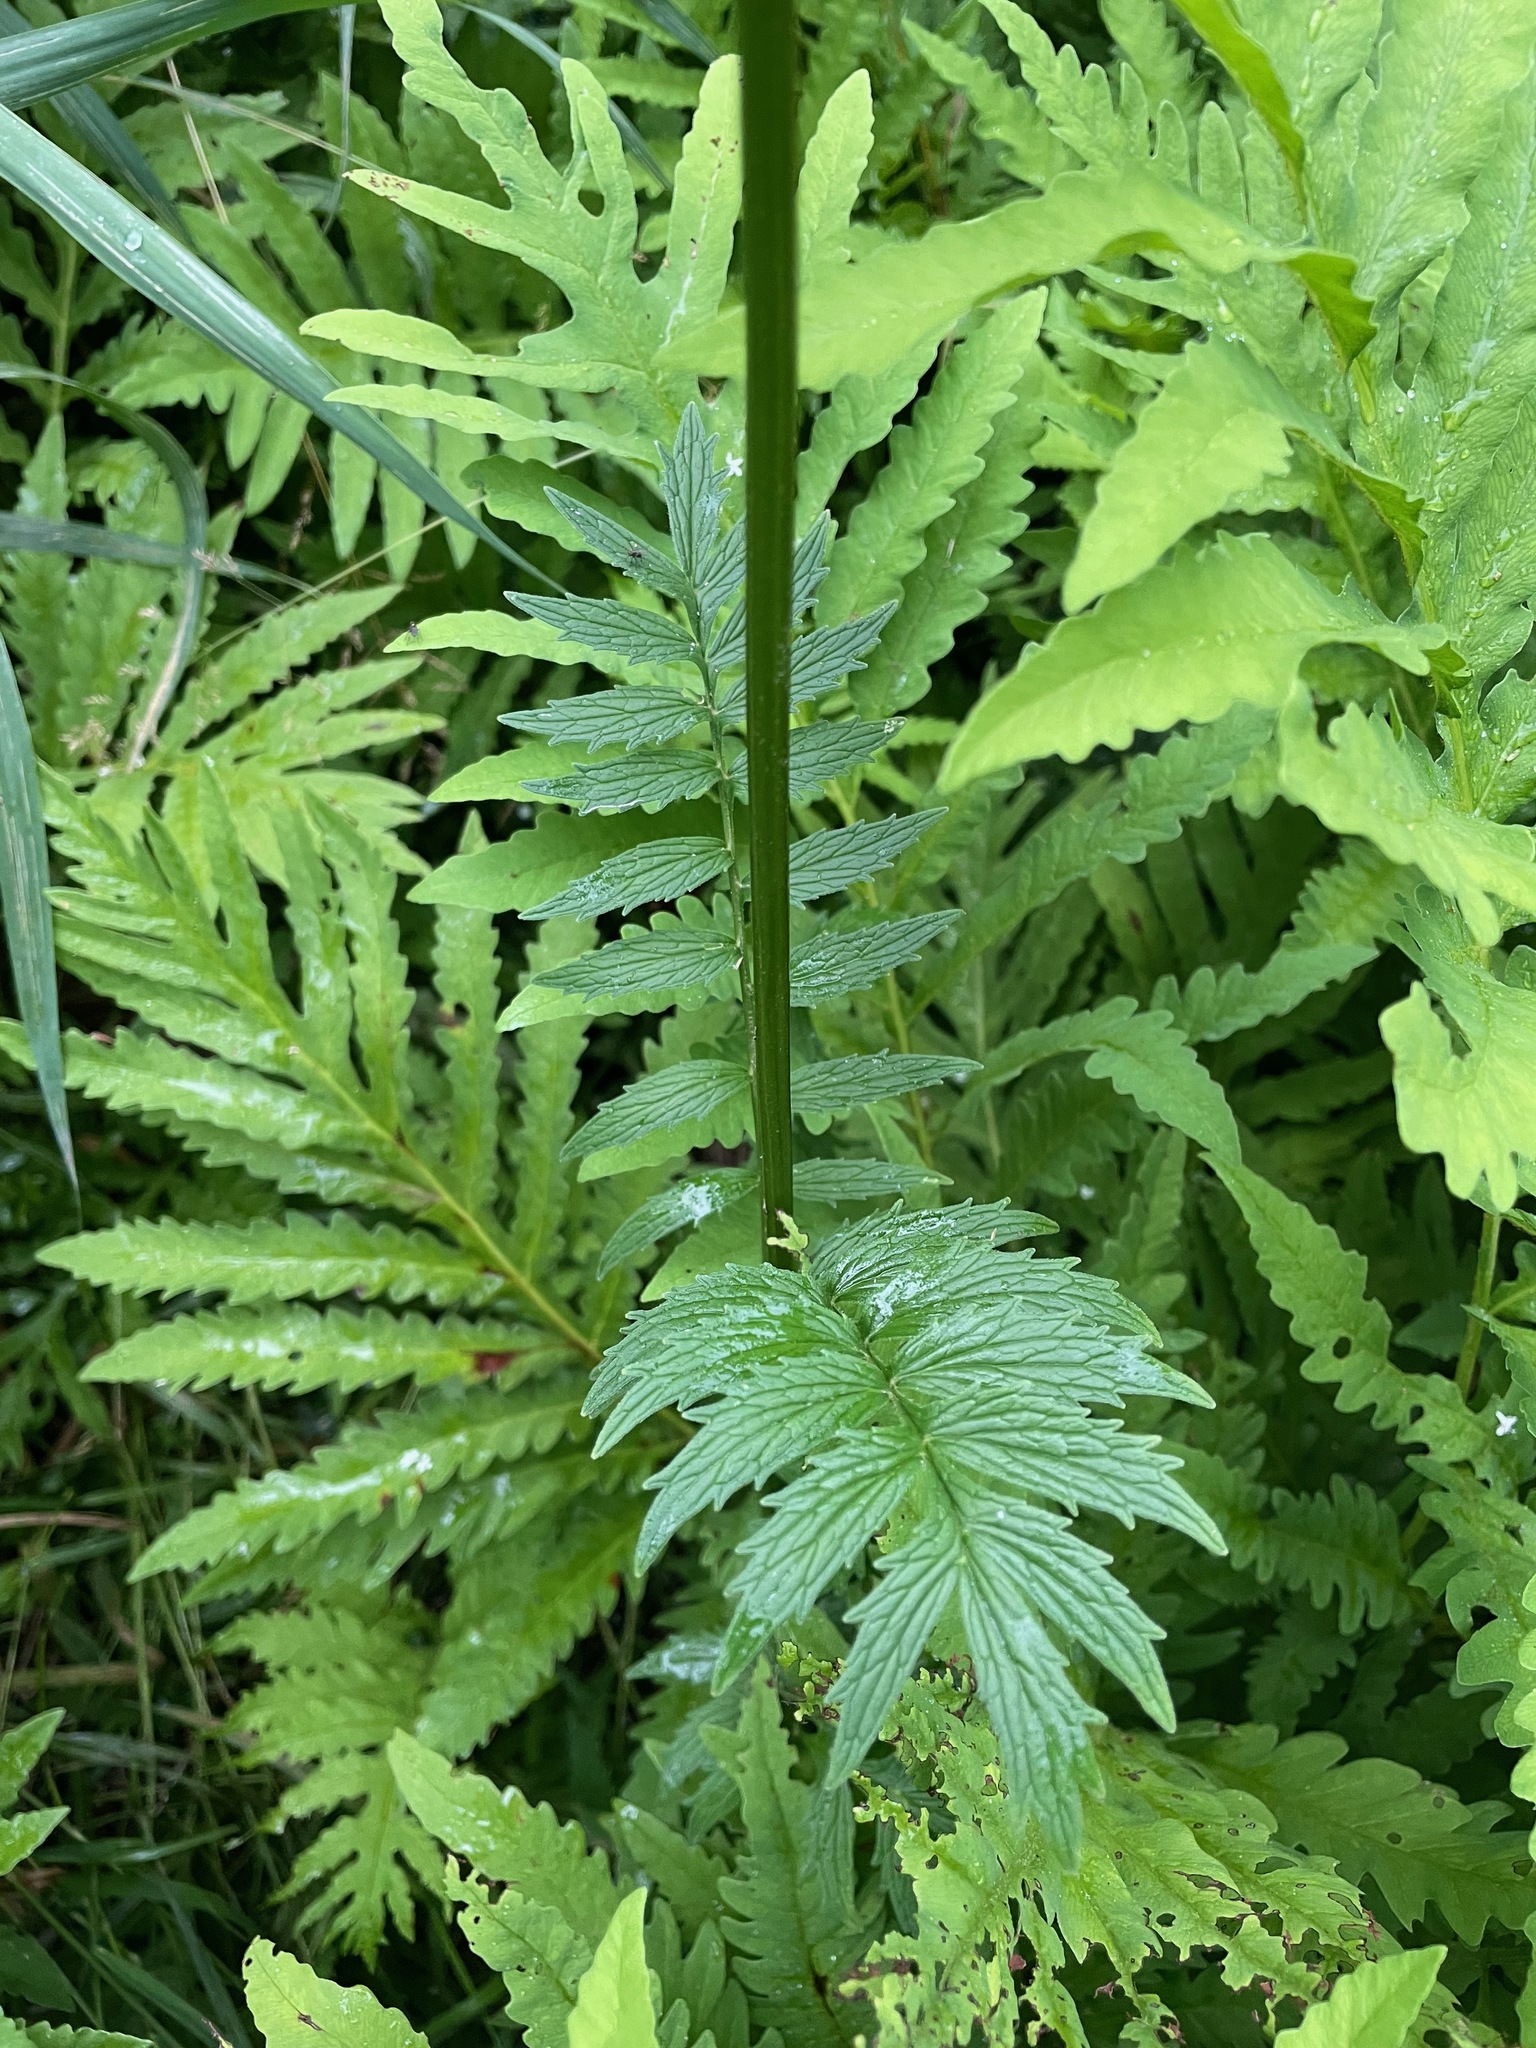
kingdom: Plantae
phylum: Tracheophyta
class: Magnoliopsida
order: Dipsacales
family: Caprifoliaceae
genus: Valeriana
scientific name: Valeriana officinalis
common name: Common valerian
